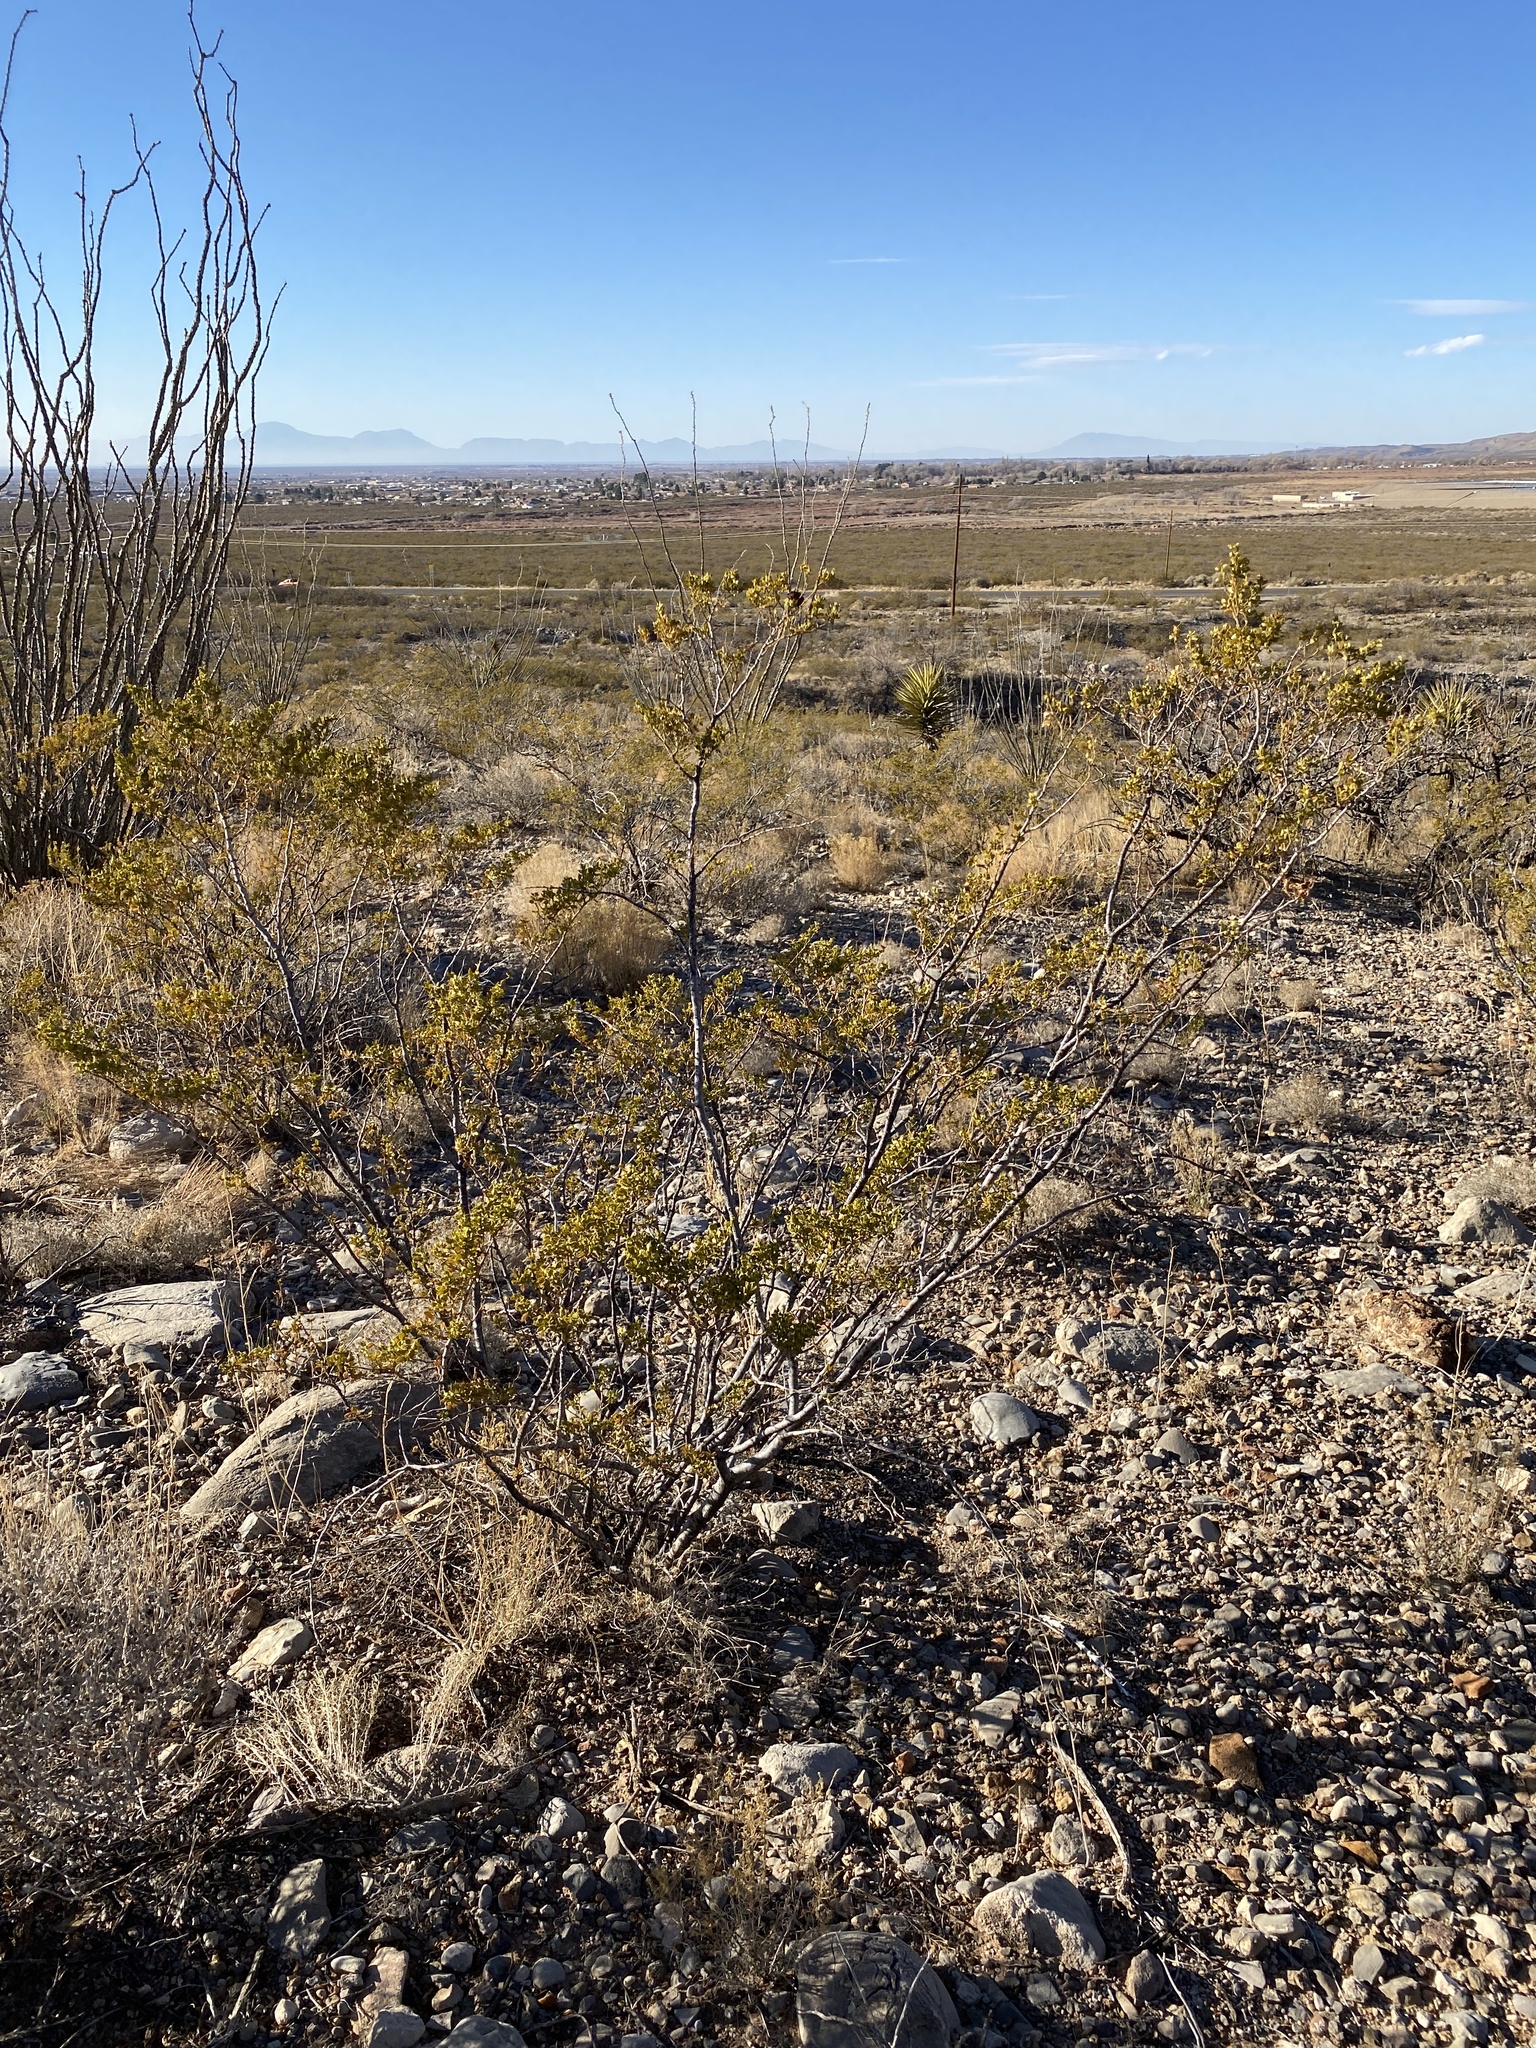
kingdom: Plantae
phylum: Tracheophyta
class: Magnoliopsida
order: Zygophyllales
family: Zygophyllaceae
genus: Larrea
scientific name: Larrea tridentata
